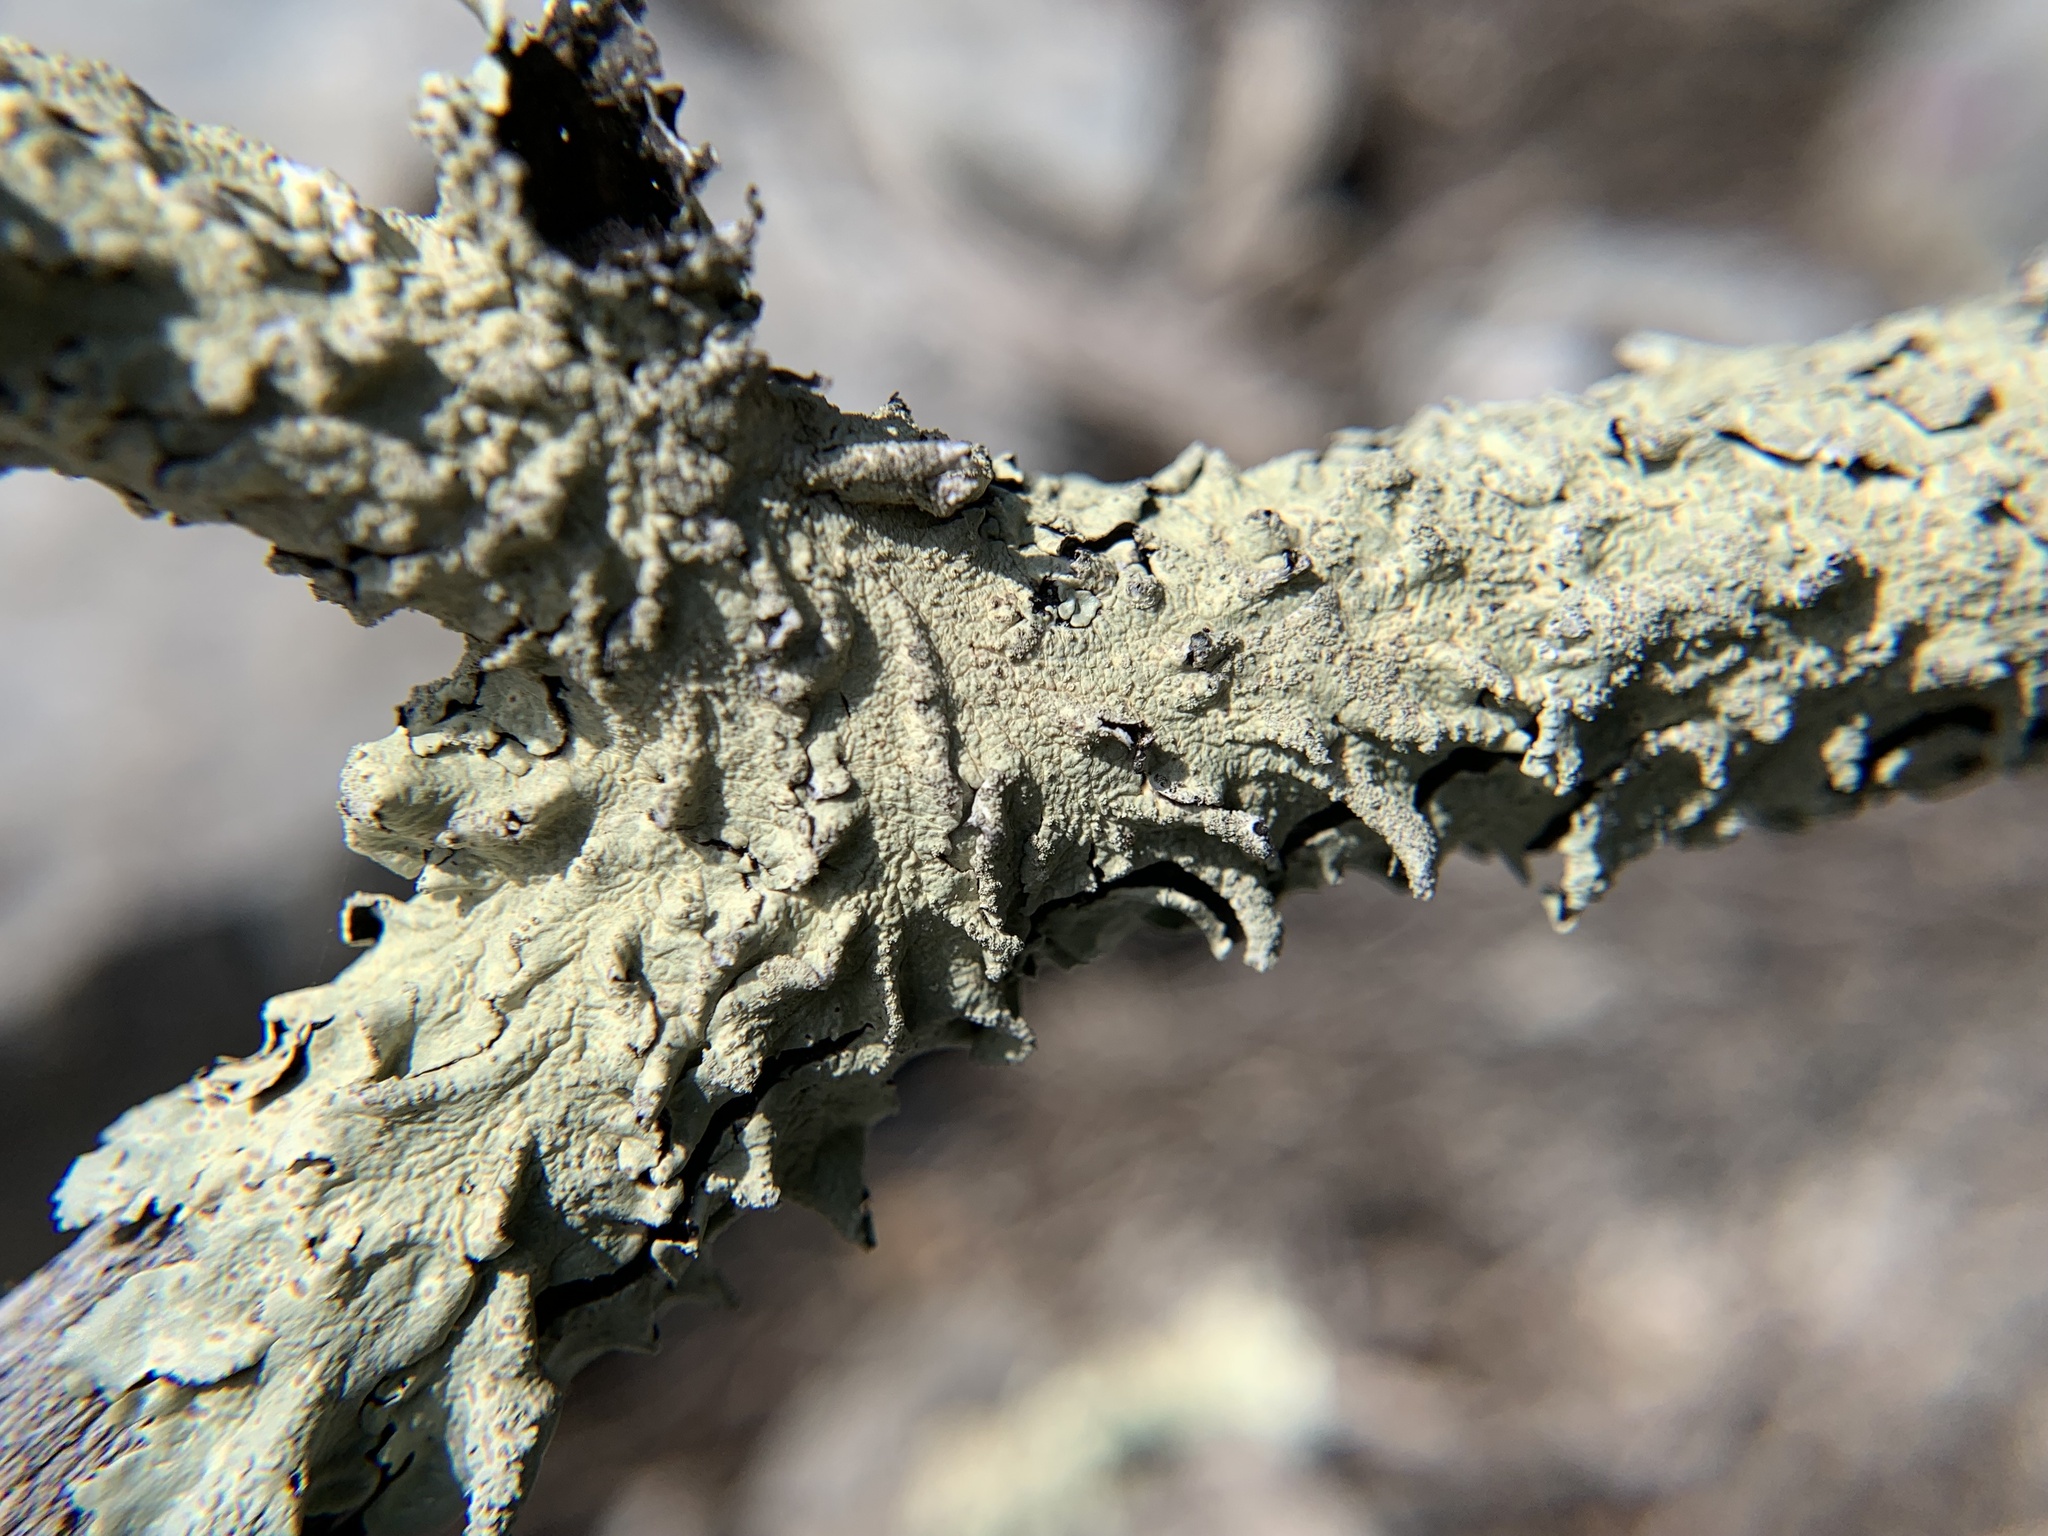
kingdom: Fungi
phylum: Ascomycota
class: Lecanoromycetes
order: Lecanorales
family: Parmeliaceae
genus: Flavoparmelia
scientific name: Flavoparmelia caperata
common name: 40-mile per hour lichen
